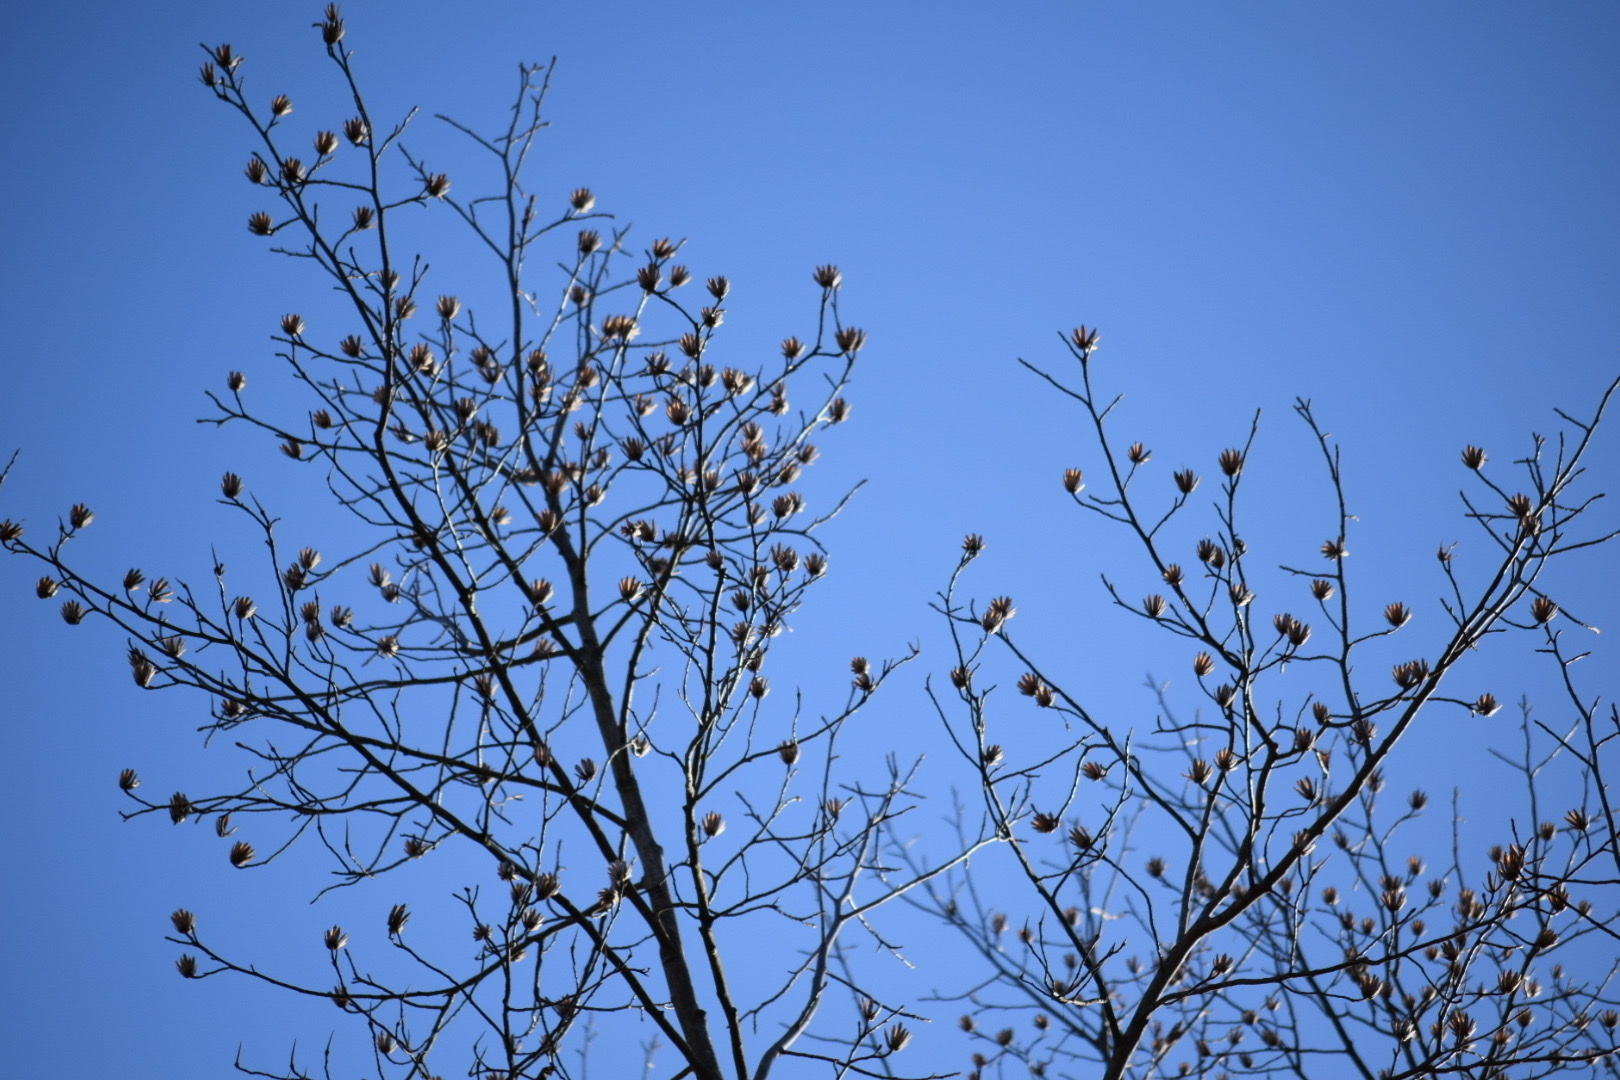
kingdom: Plantae
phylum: Tracheophyta
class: Magnoliopsida
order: Magnoliales
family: Magnoliaceae
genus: Liriodendron
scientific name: Liriodendron tulipifera
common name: Tulip tree
